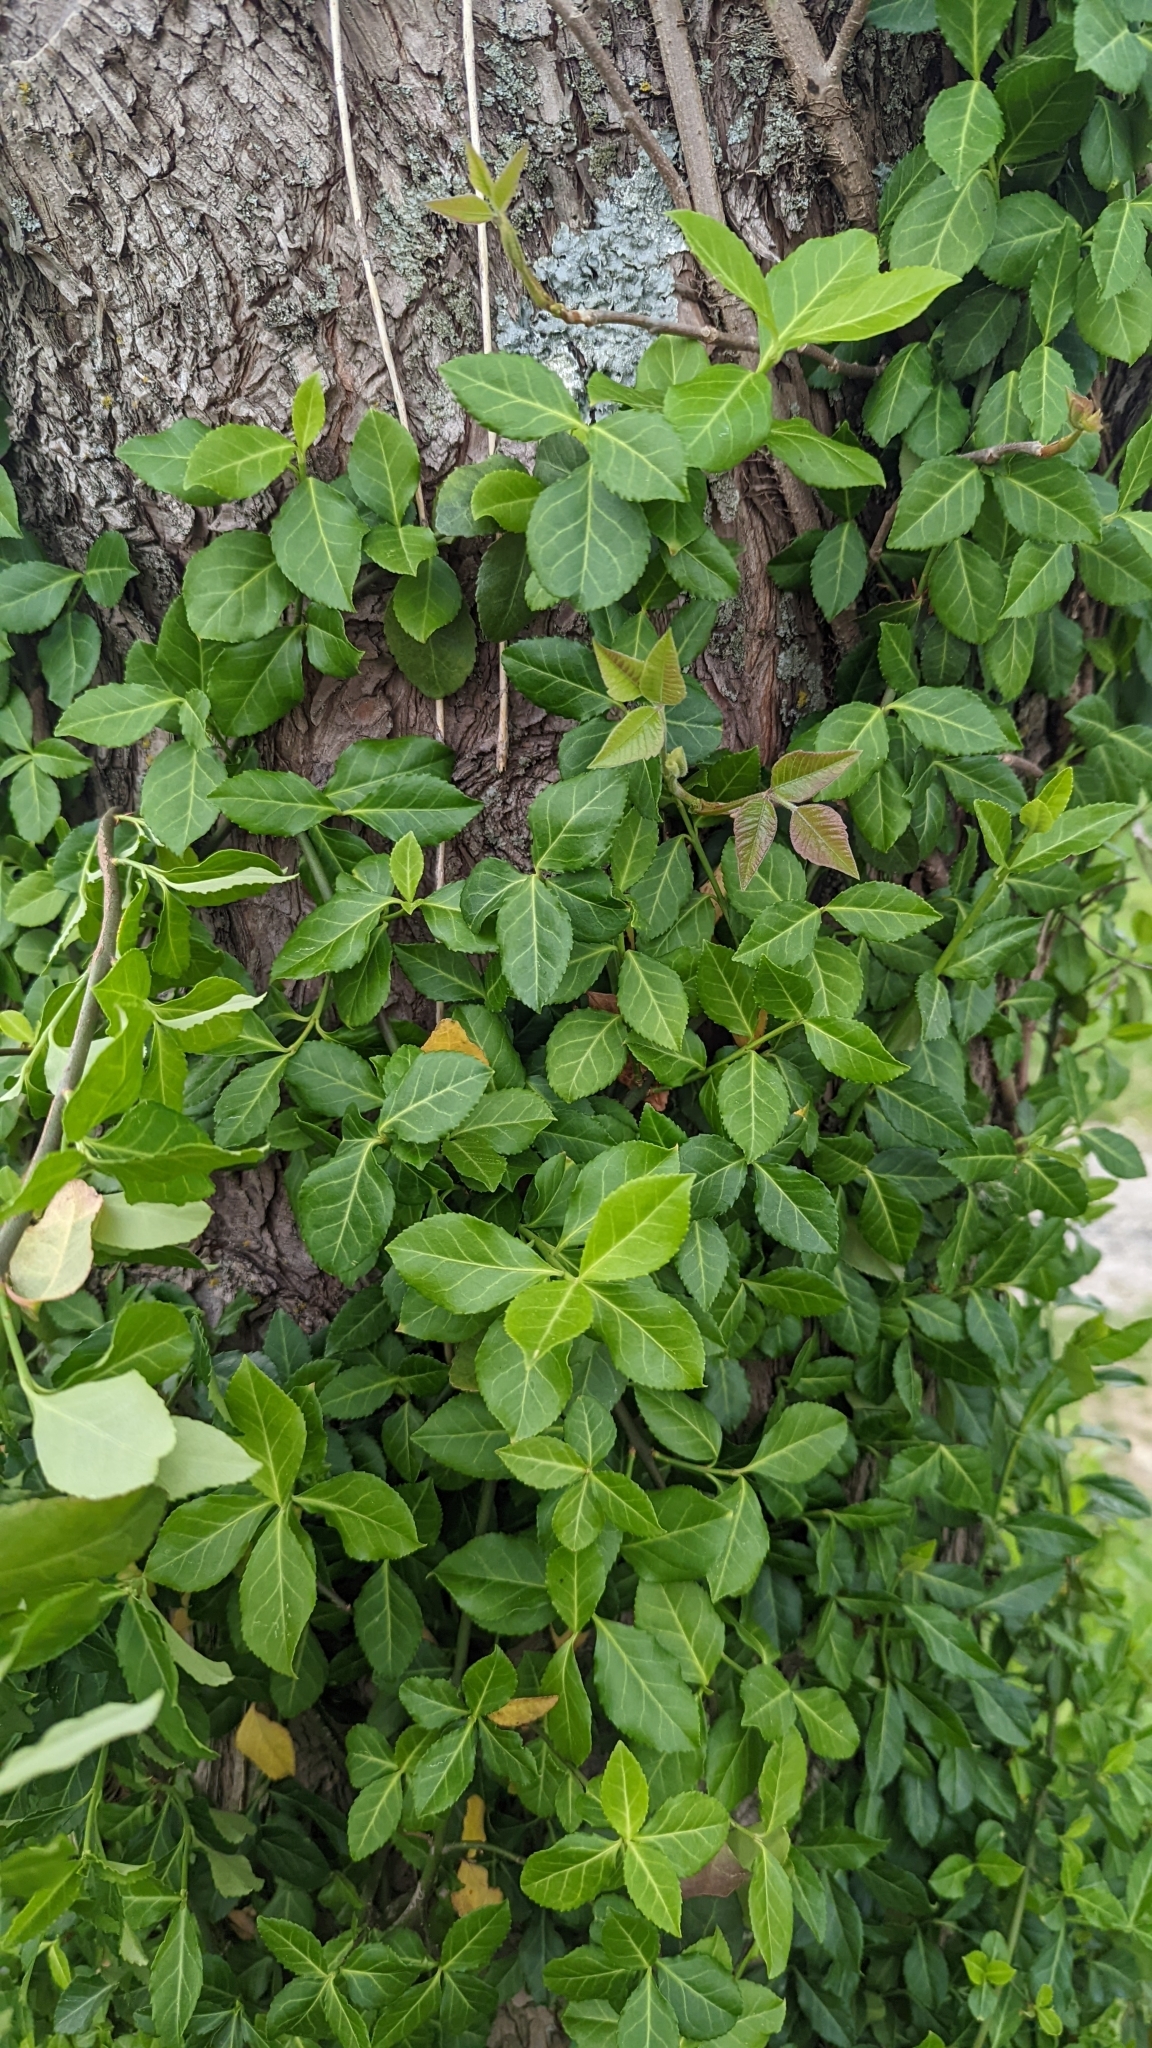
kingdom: Plantae
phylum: Tracheophyta
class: Magnoliopsida
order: Celastrales
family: Celastraceae
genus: Euonymus
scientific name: Euonymus fortunei
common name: Climbing euonymus
